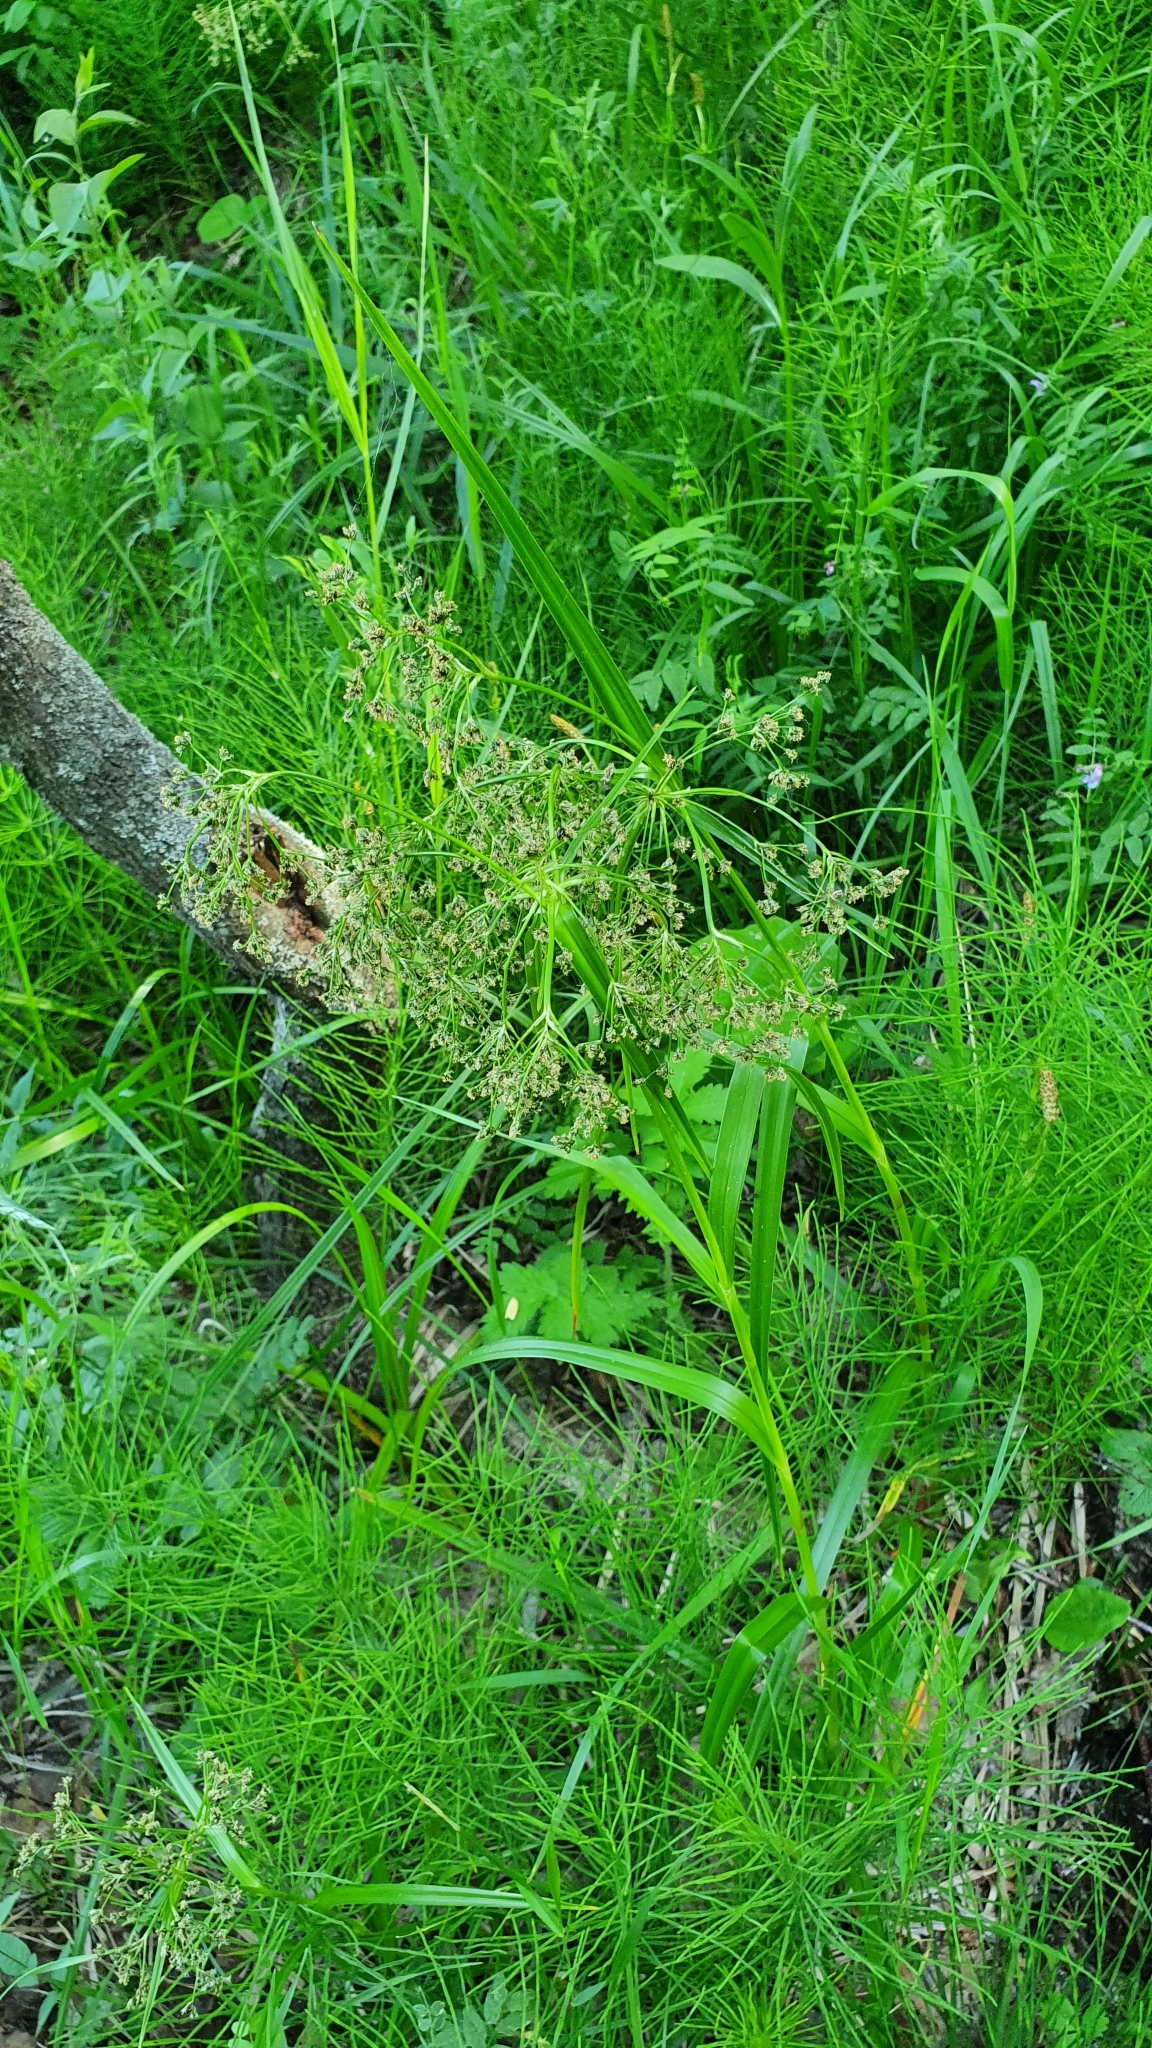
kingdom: Plantae
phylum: Tracheophyta
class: Liliopsida
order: Poales
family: Cyperaceae
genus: Scirpus
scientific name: Scirpus sylvaticus
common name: Wood club-rush
